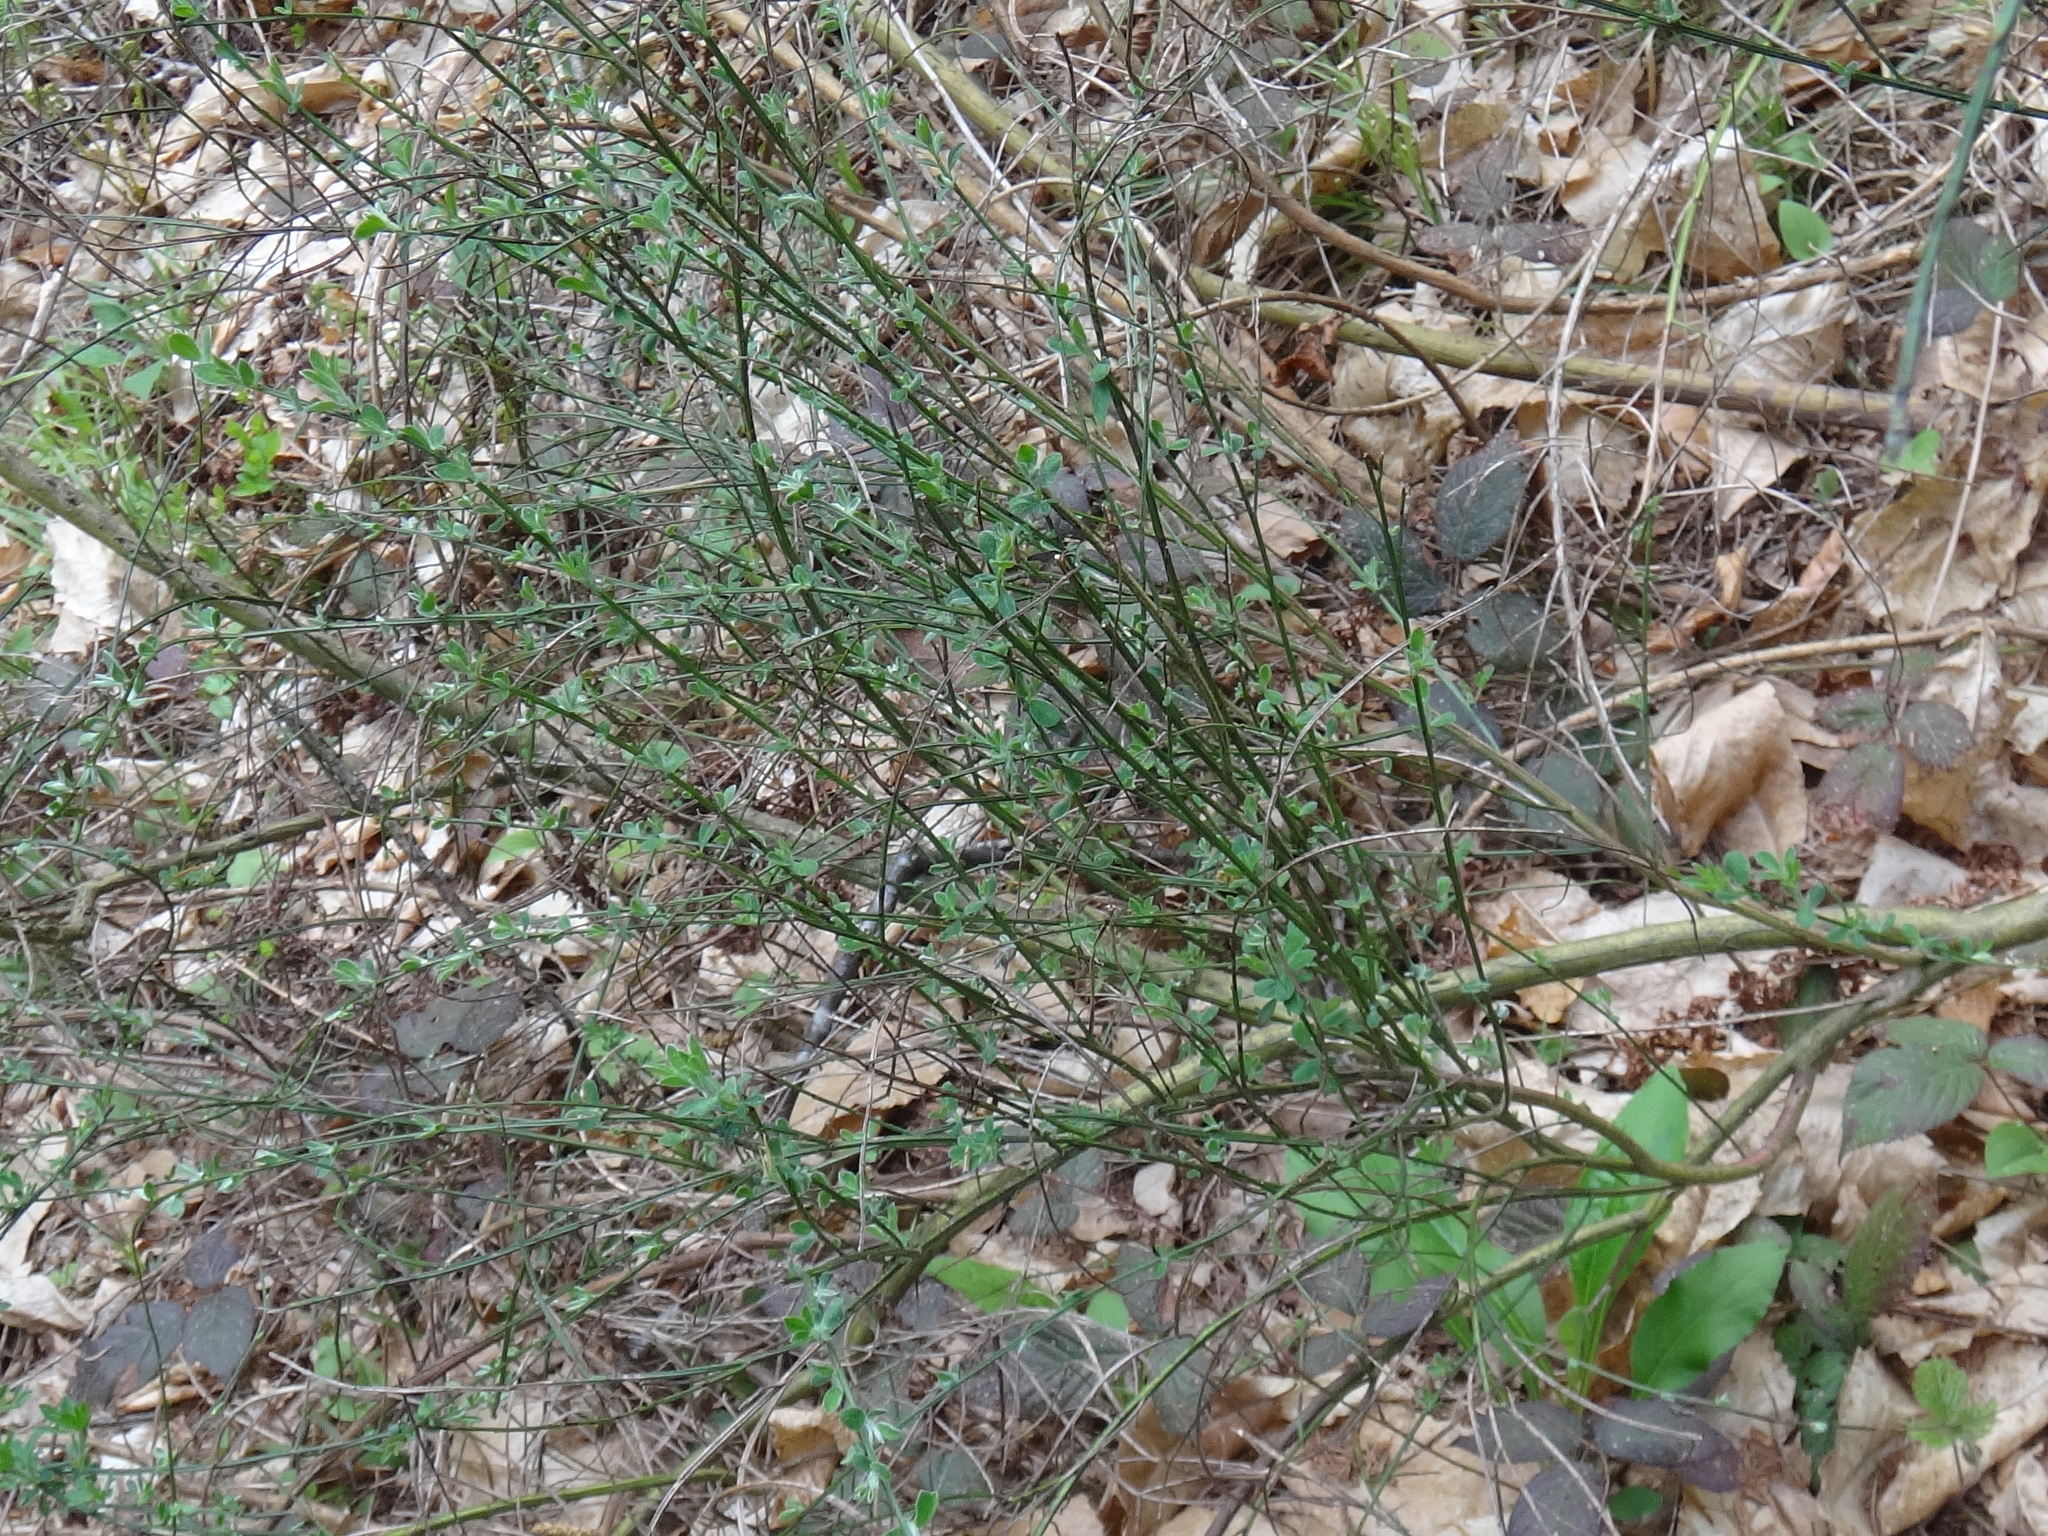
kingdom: Plantae
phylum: Tracheophyta
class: Magnoliopsida
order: Fabales
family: Fabaceae
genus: Cytisus
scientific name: Cytisus scoparius
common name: Scotch broom
